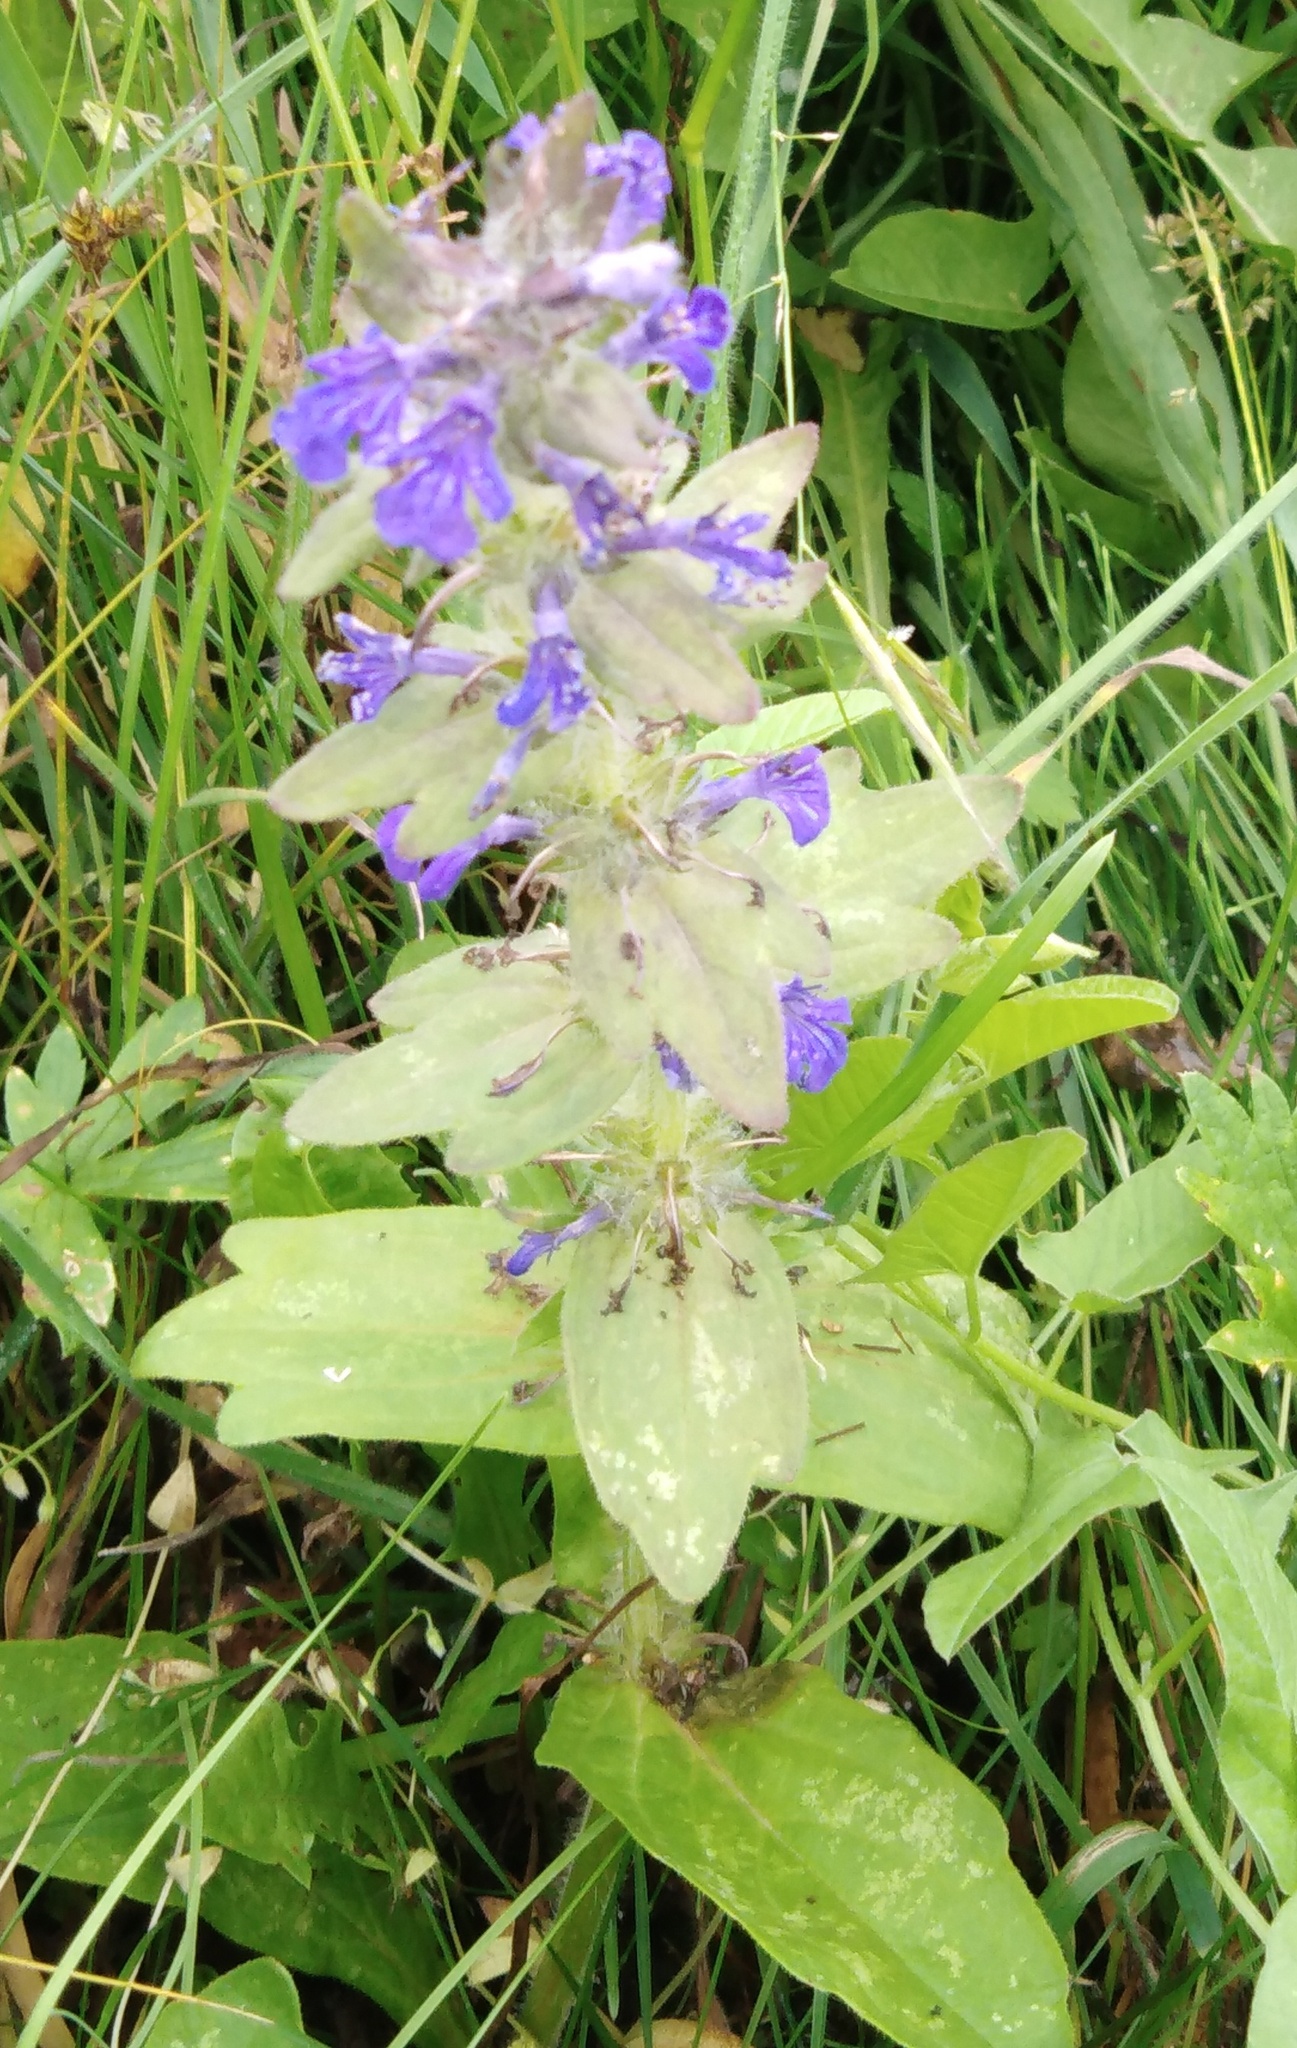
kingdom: Plantae
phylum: Tracheophyta
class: Magnoliopsida
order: Lamiales
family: Lamiaceae
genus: Ajuga
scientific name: Ajuga genevensis
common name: Blue bugle
